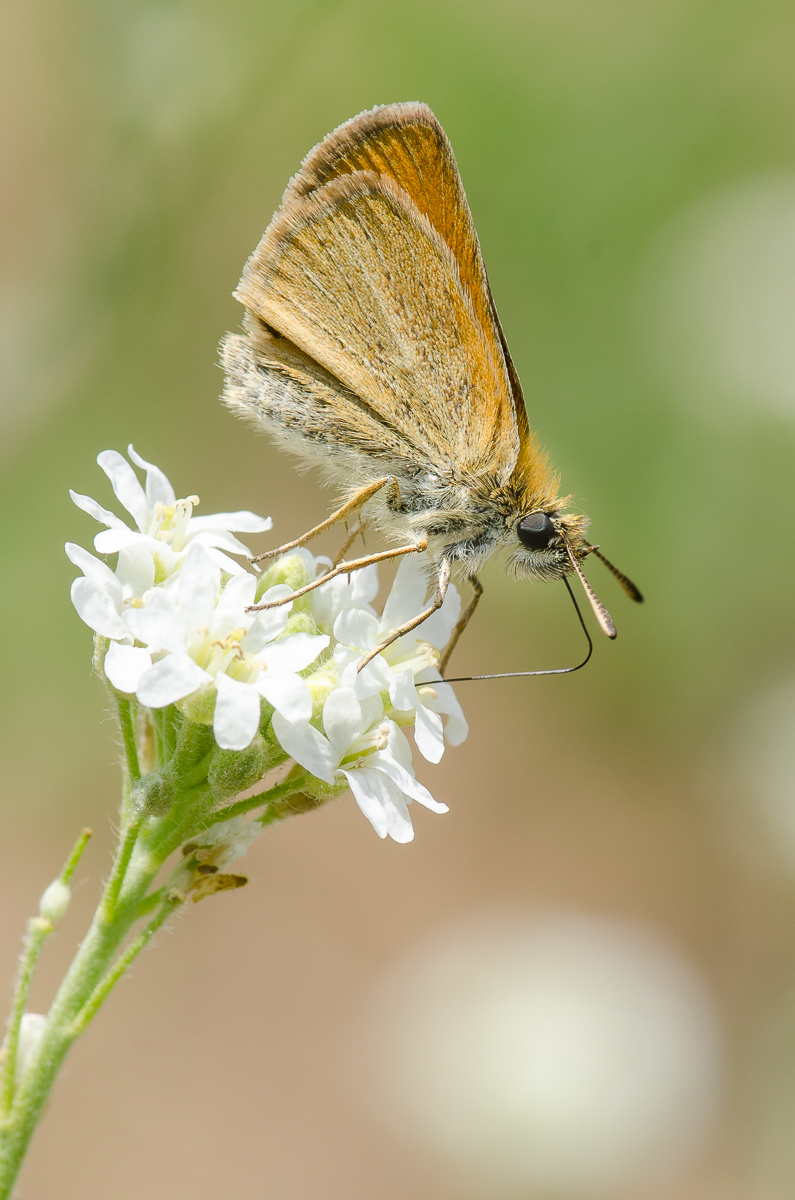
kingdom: Animalia
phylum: Arthropoda
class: Insecta
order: Lepidoptera
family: Hesperiidae
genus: Thymelicus
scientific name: Thymelicus lineola
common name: Essex skipper
